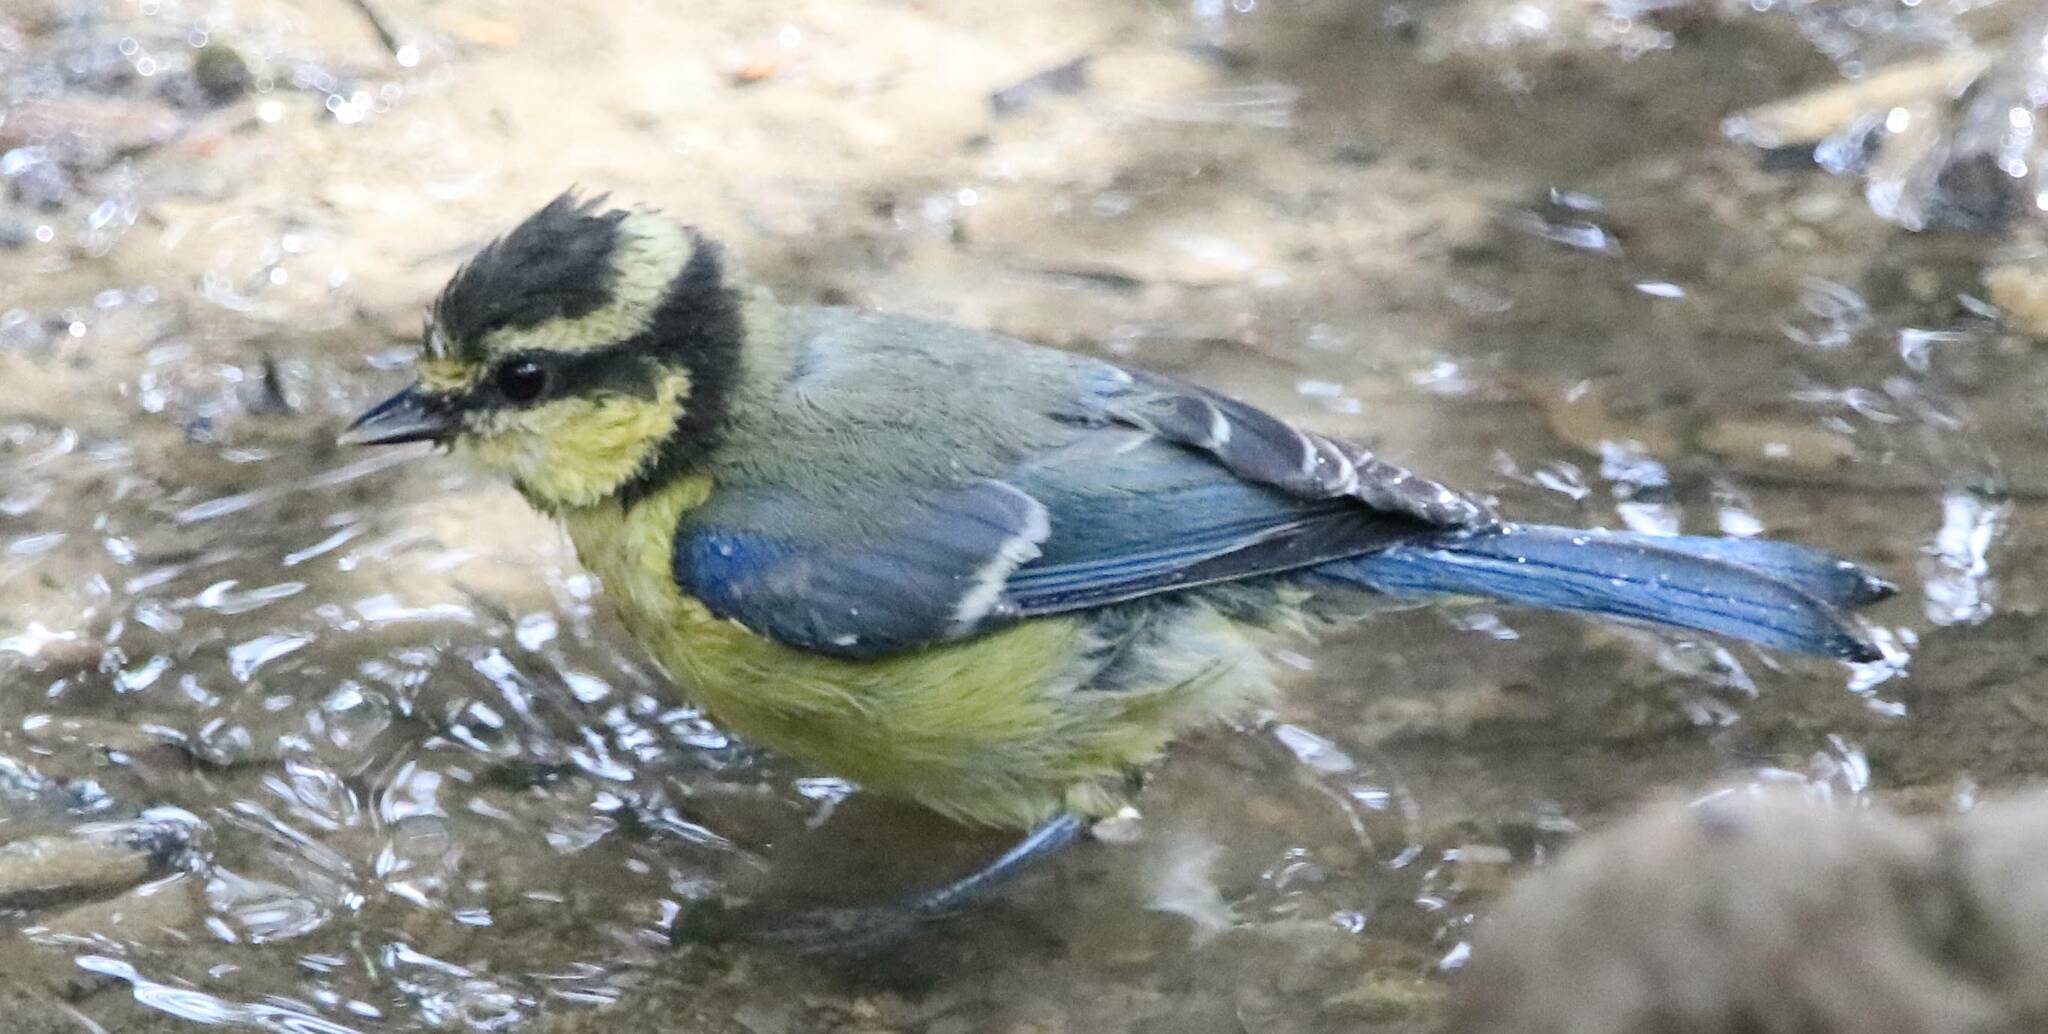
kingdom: Animalia
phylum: Chordata
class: Aves
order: Passeriformes
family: Paridae
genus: Cyanistes
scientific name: Cyanistes teneriffae
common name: African blue tit
